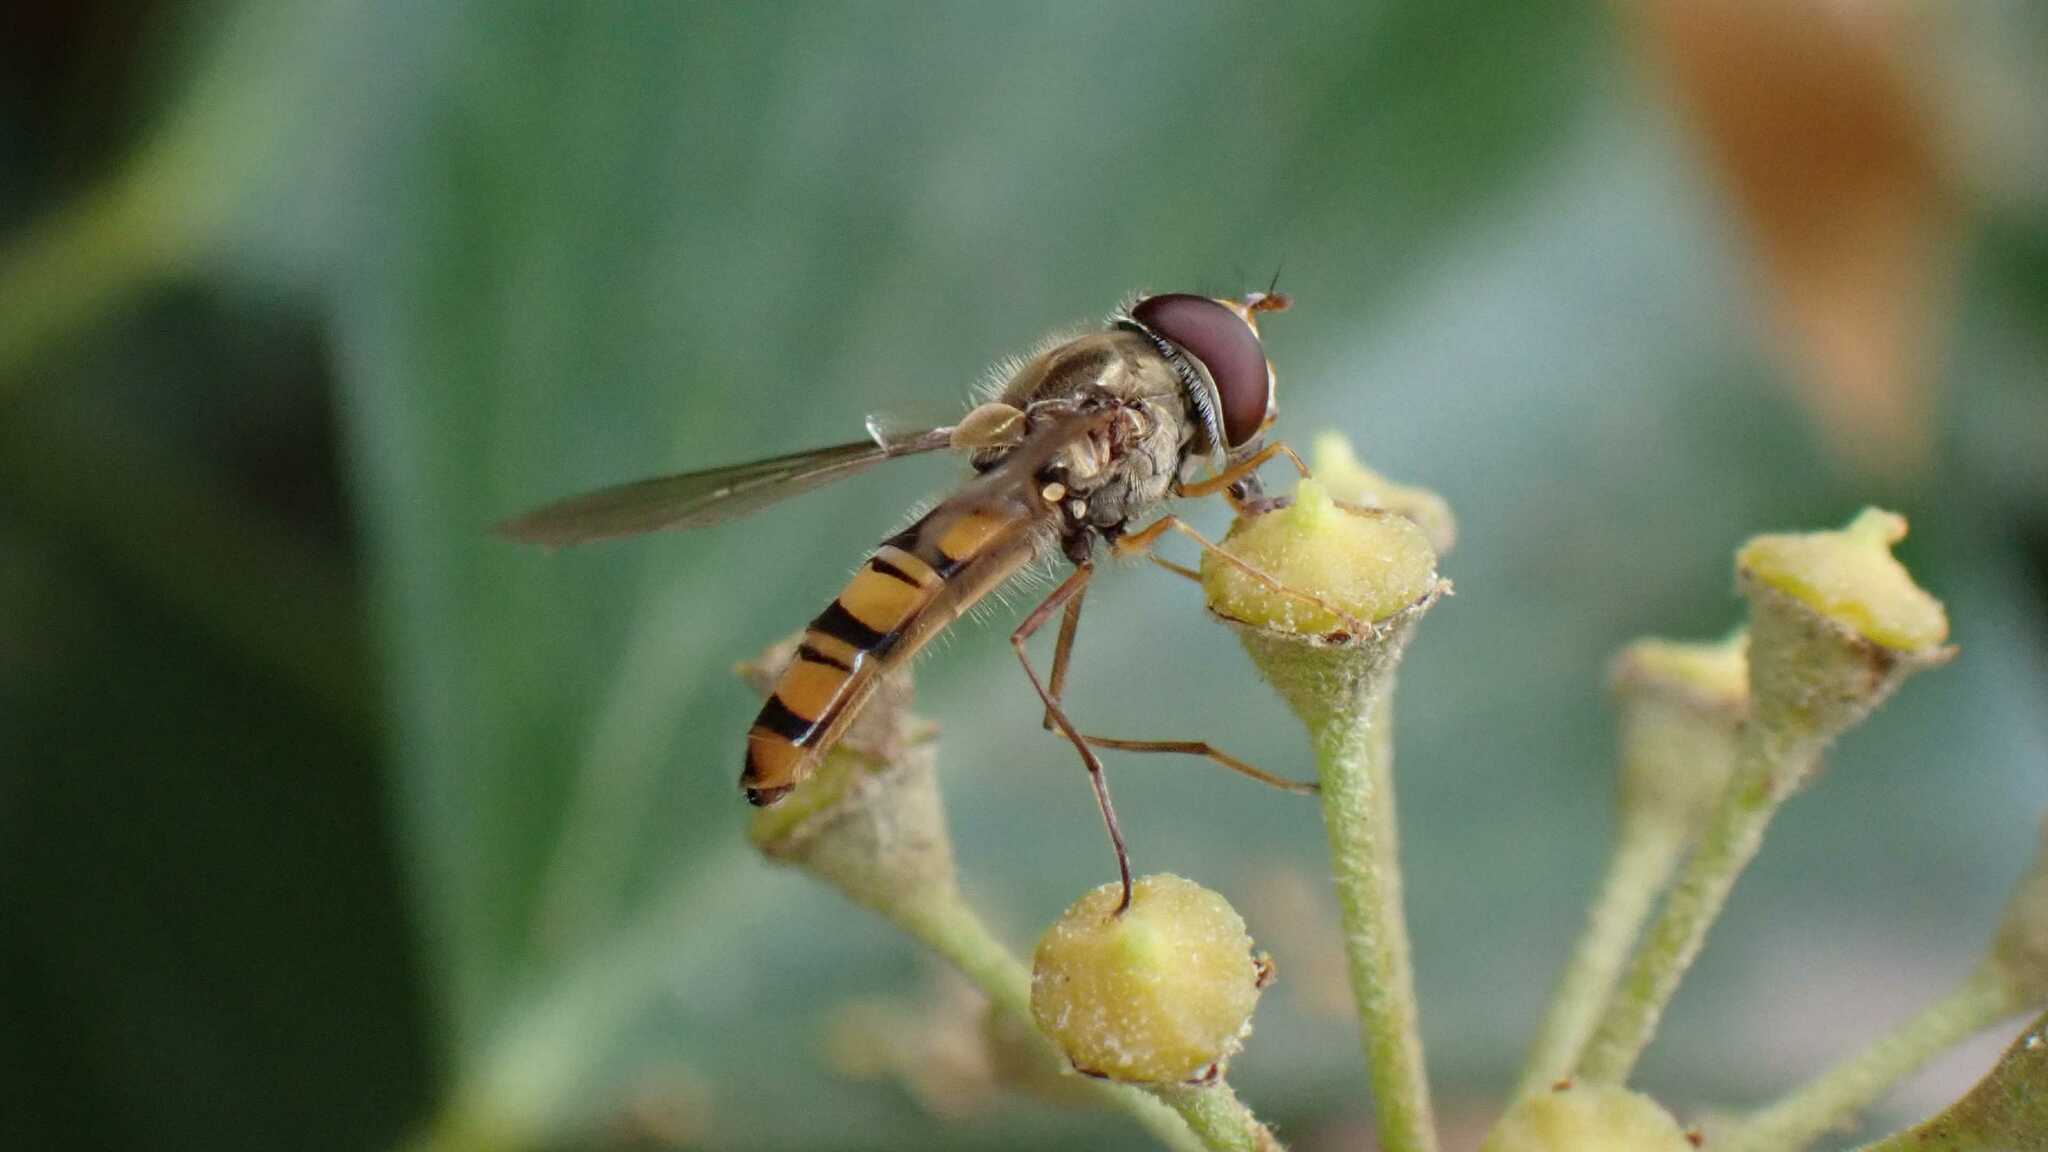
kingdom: Animalia
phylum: Arthropoda
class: Insecta
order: Diptera
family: Syrphidae
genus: Episyrphus
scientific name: Episyrphus balteatus
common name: Marmalade hoverfly
